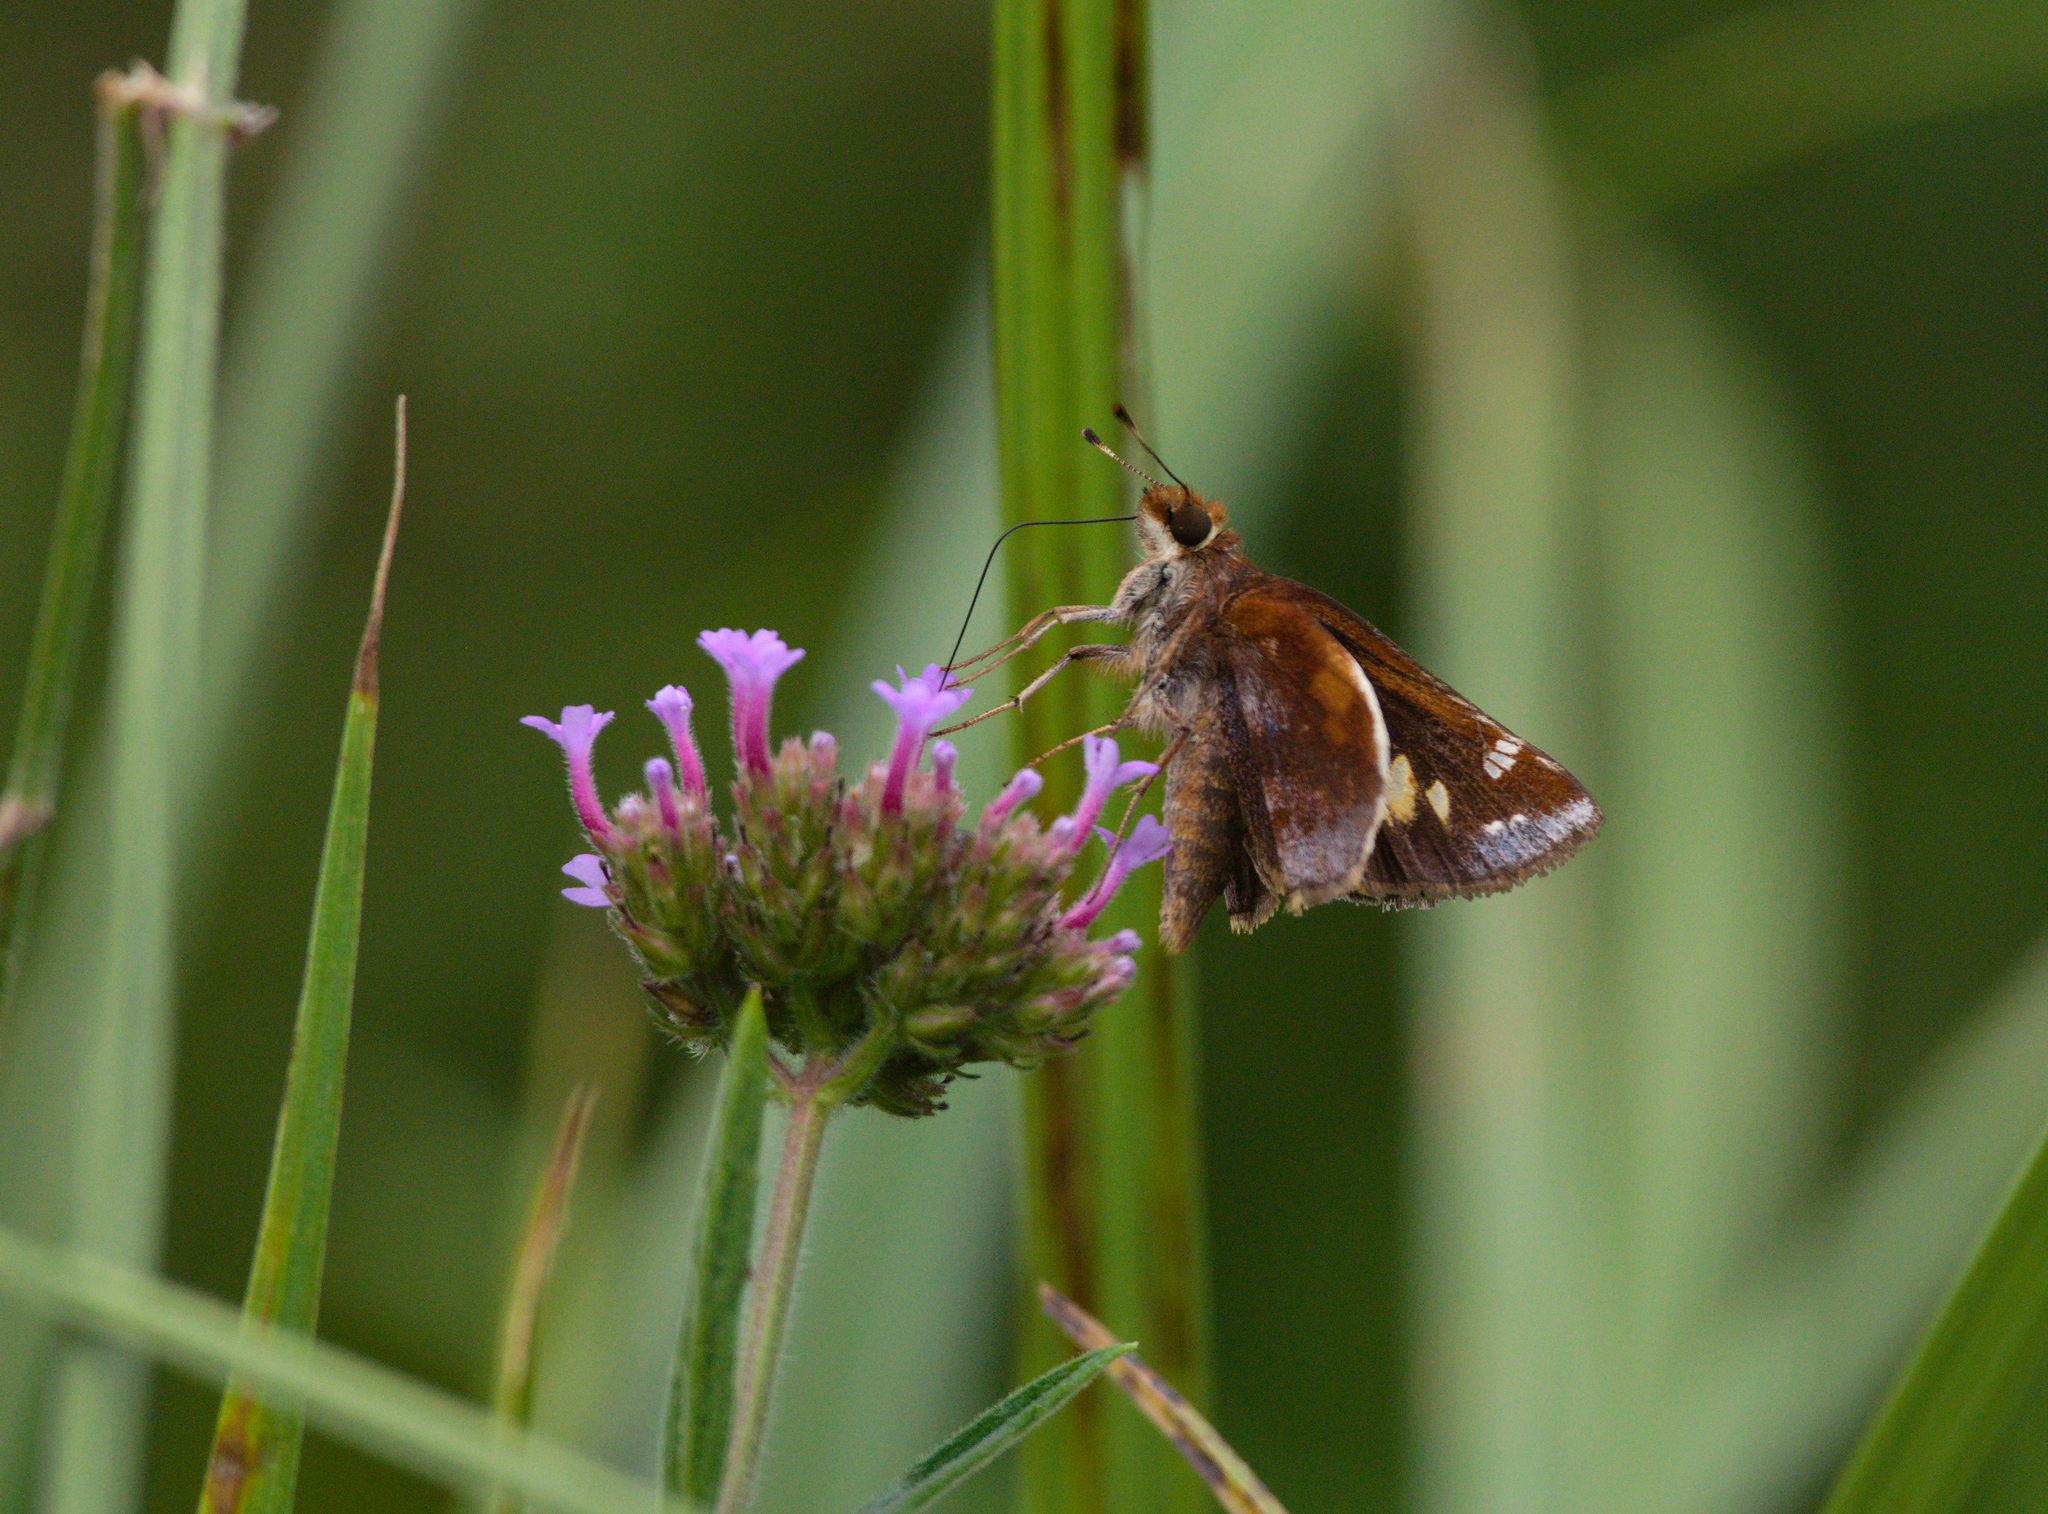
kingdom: Animalia
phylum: Arthropoda
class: Insecta
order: Lepidoptera
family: Hesperiidae
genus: Lon
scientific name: Lon zabulon
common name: Zabulon skipper
